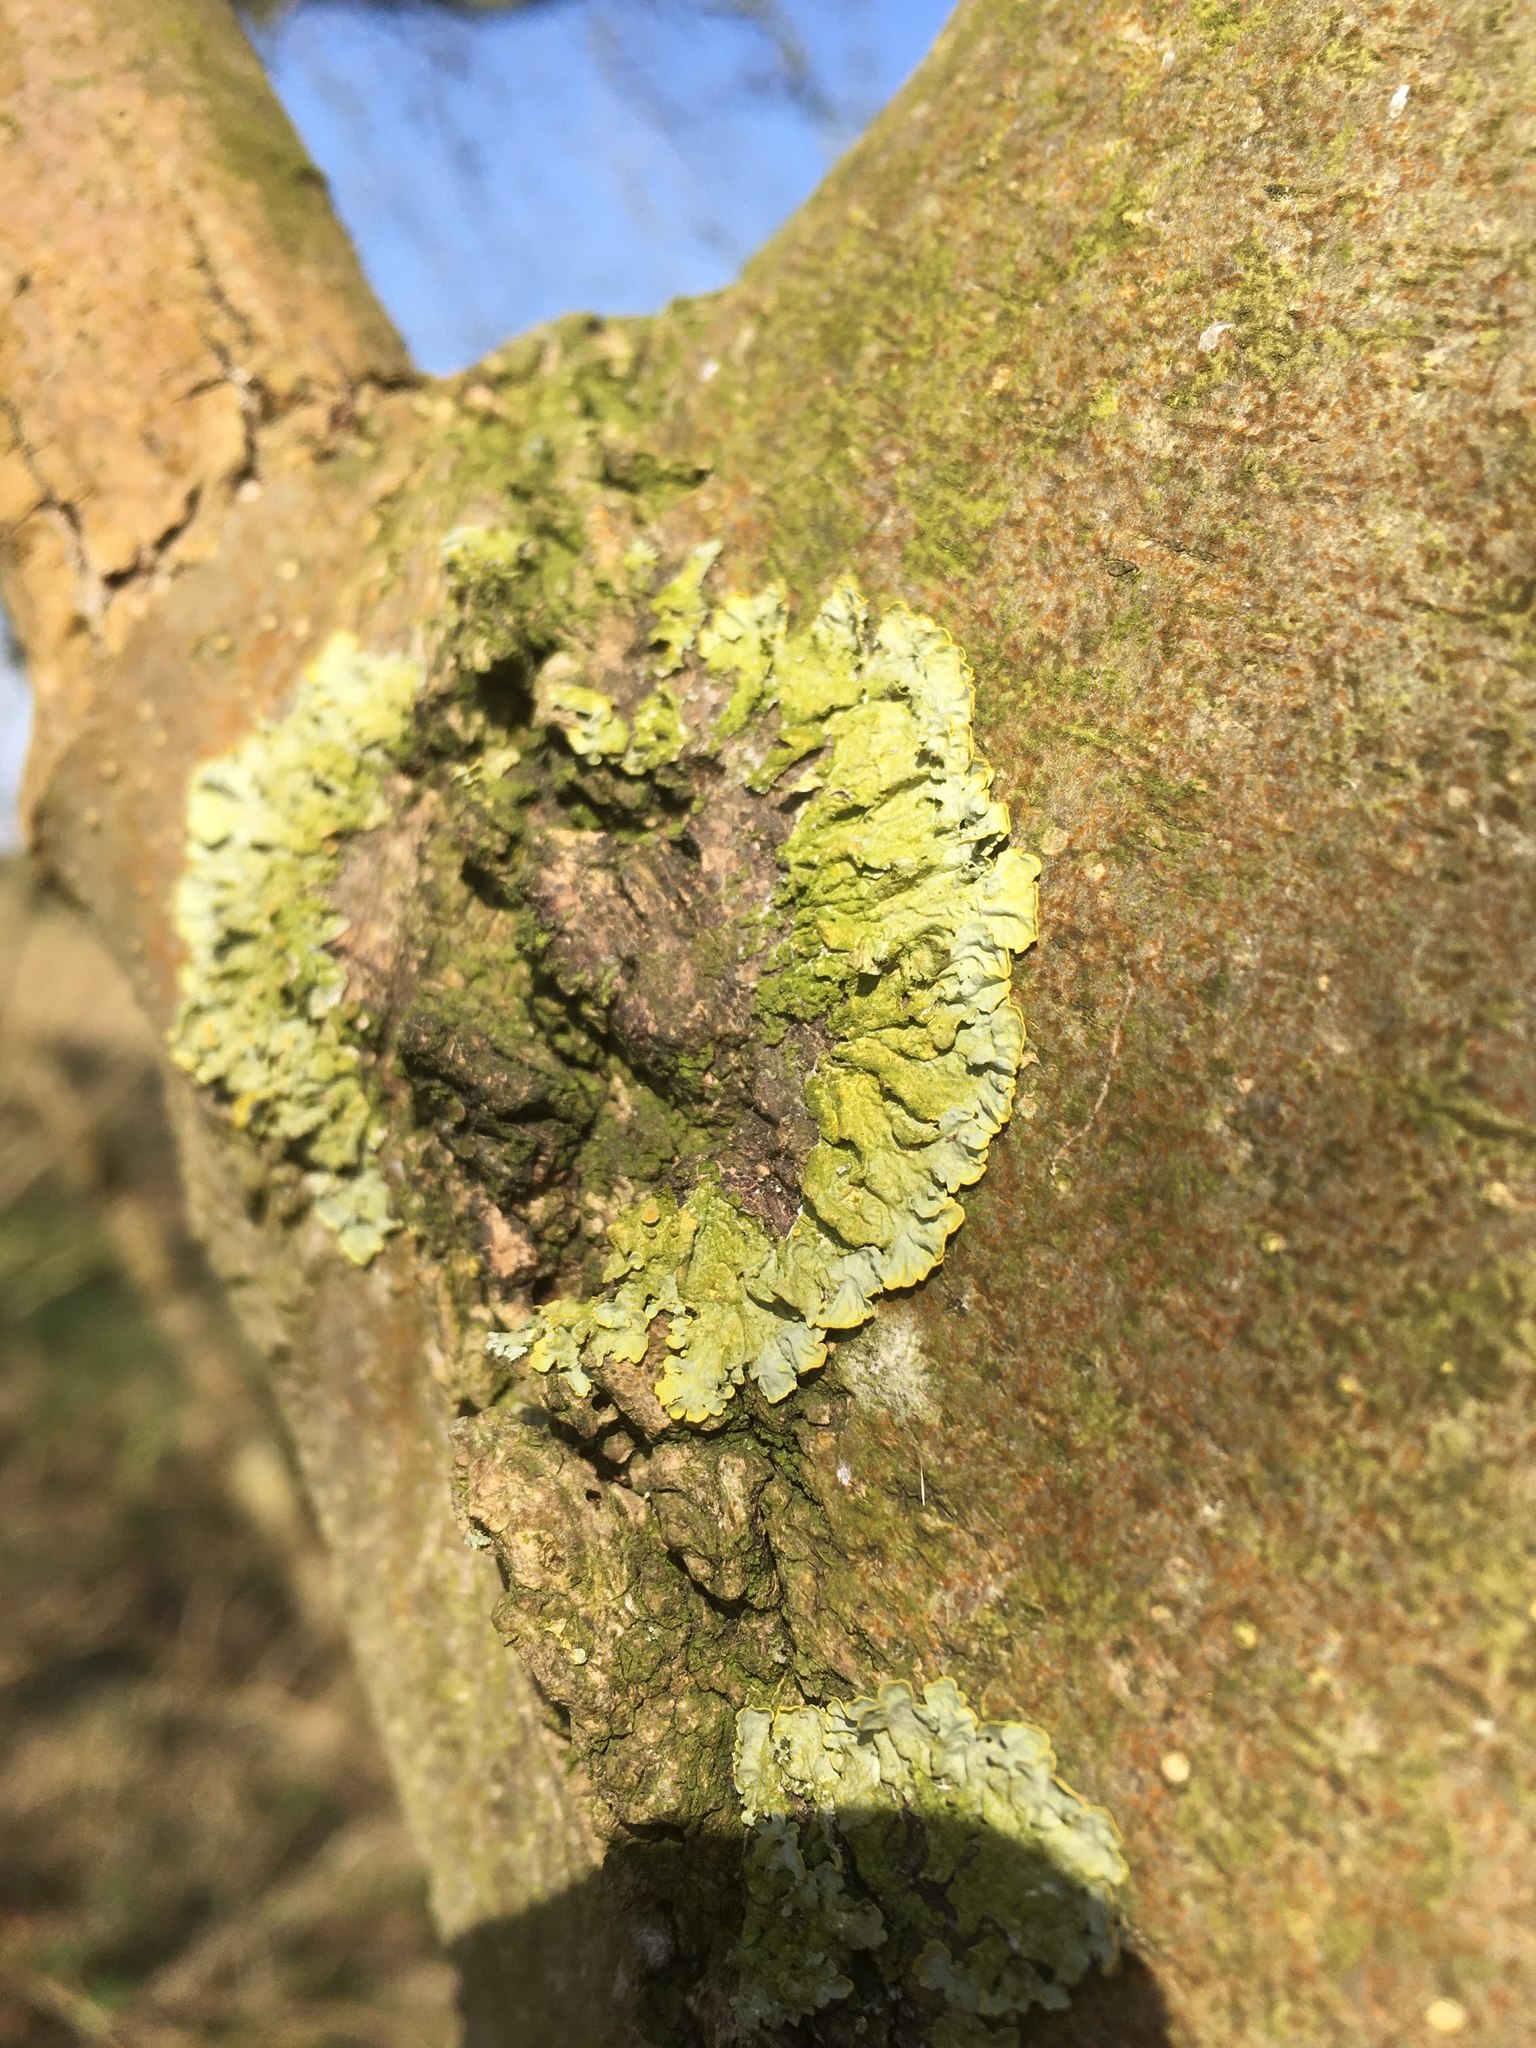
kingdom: Fungi
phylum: Ascomycota
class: Lecanoromycetes
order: Teloschistales
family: Teloschistaceae
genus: Xanthoria
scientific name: Xanthoria parietina
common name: Common orange lichen
